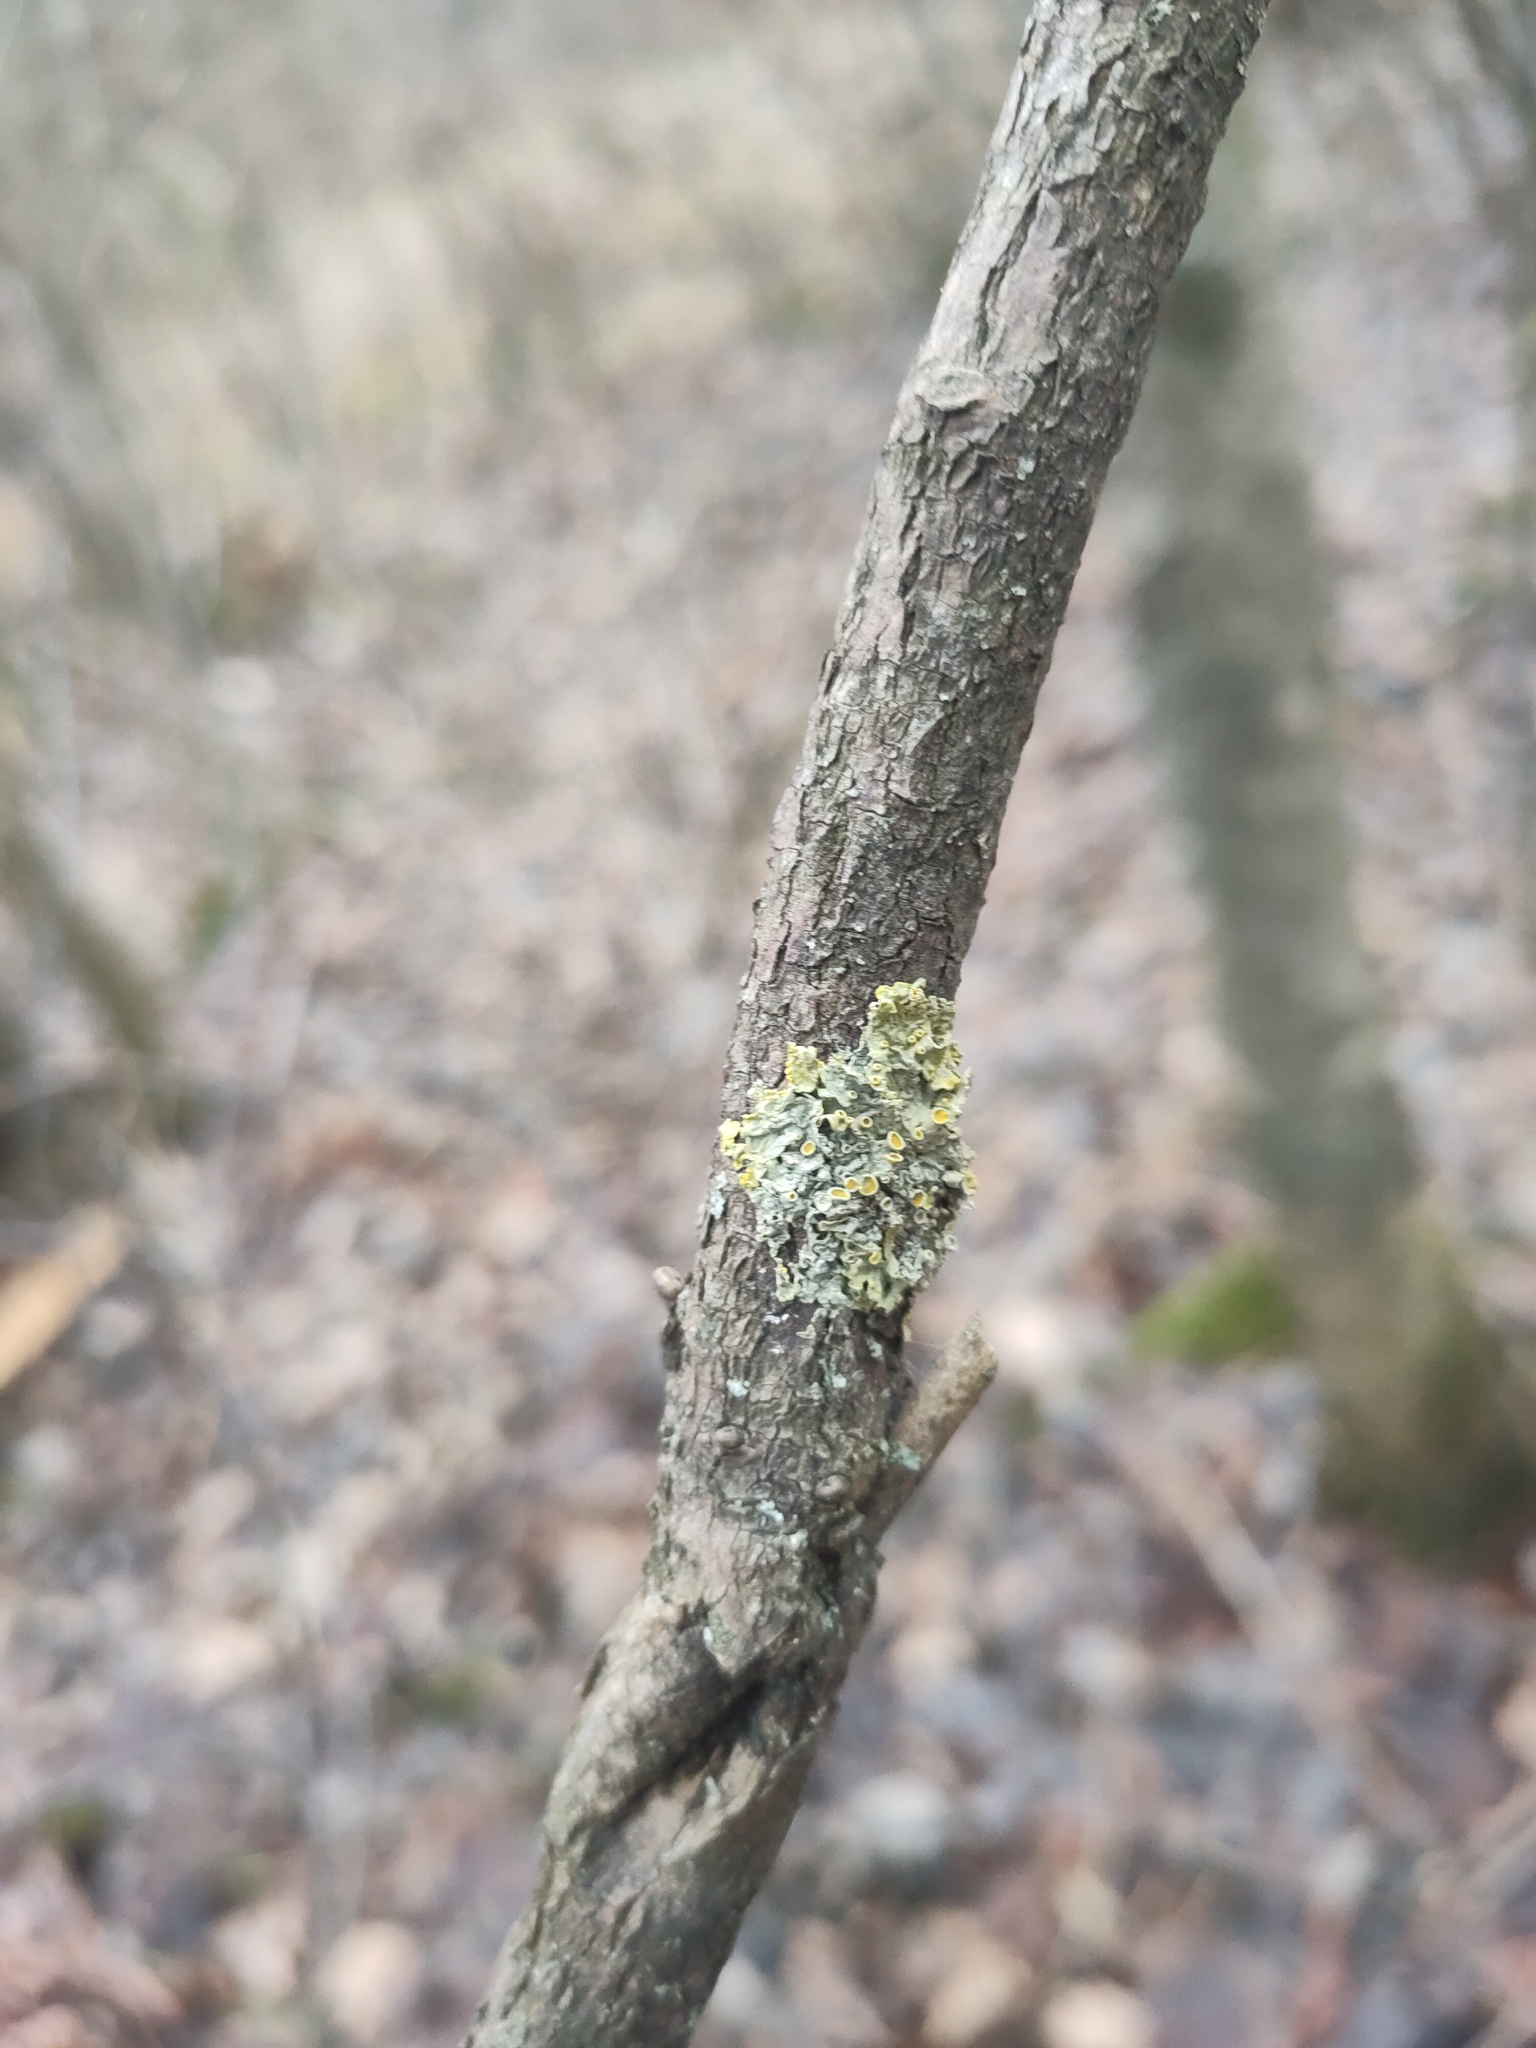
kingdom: Fungi
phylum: Ascomycota
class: Lecanoromycetes
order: Teloschistales
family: Teloschistaceae
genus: Xanthoria
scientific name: Xanthoria parietina
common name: Common orange lichen
